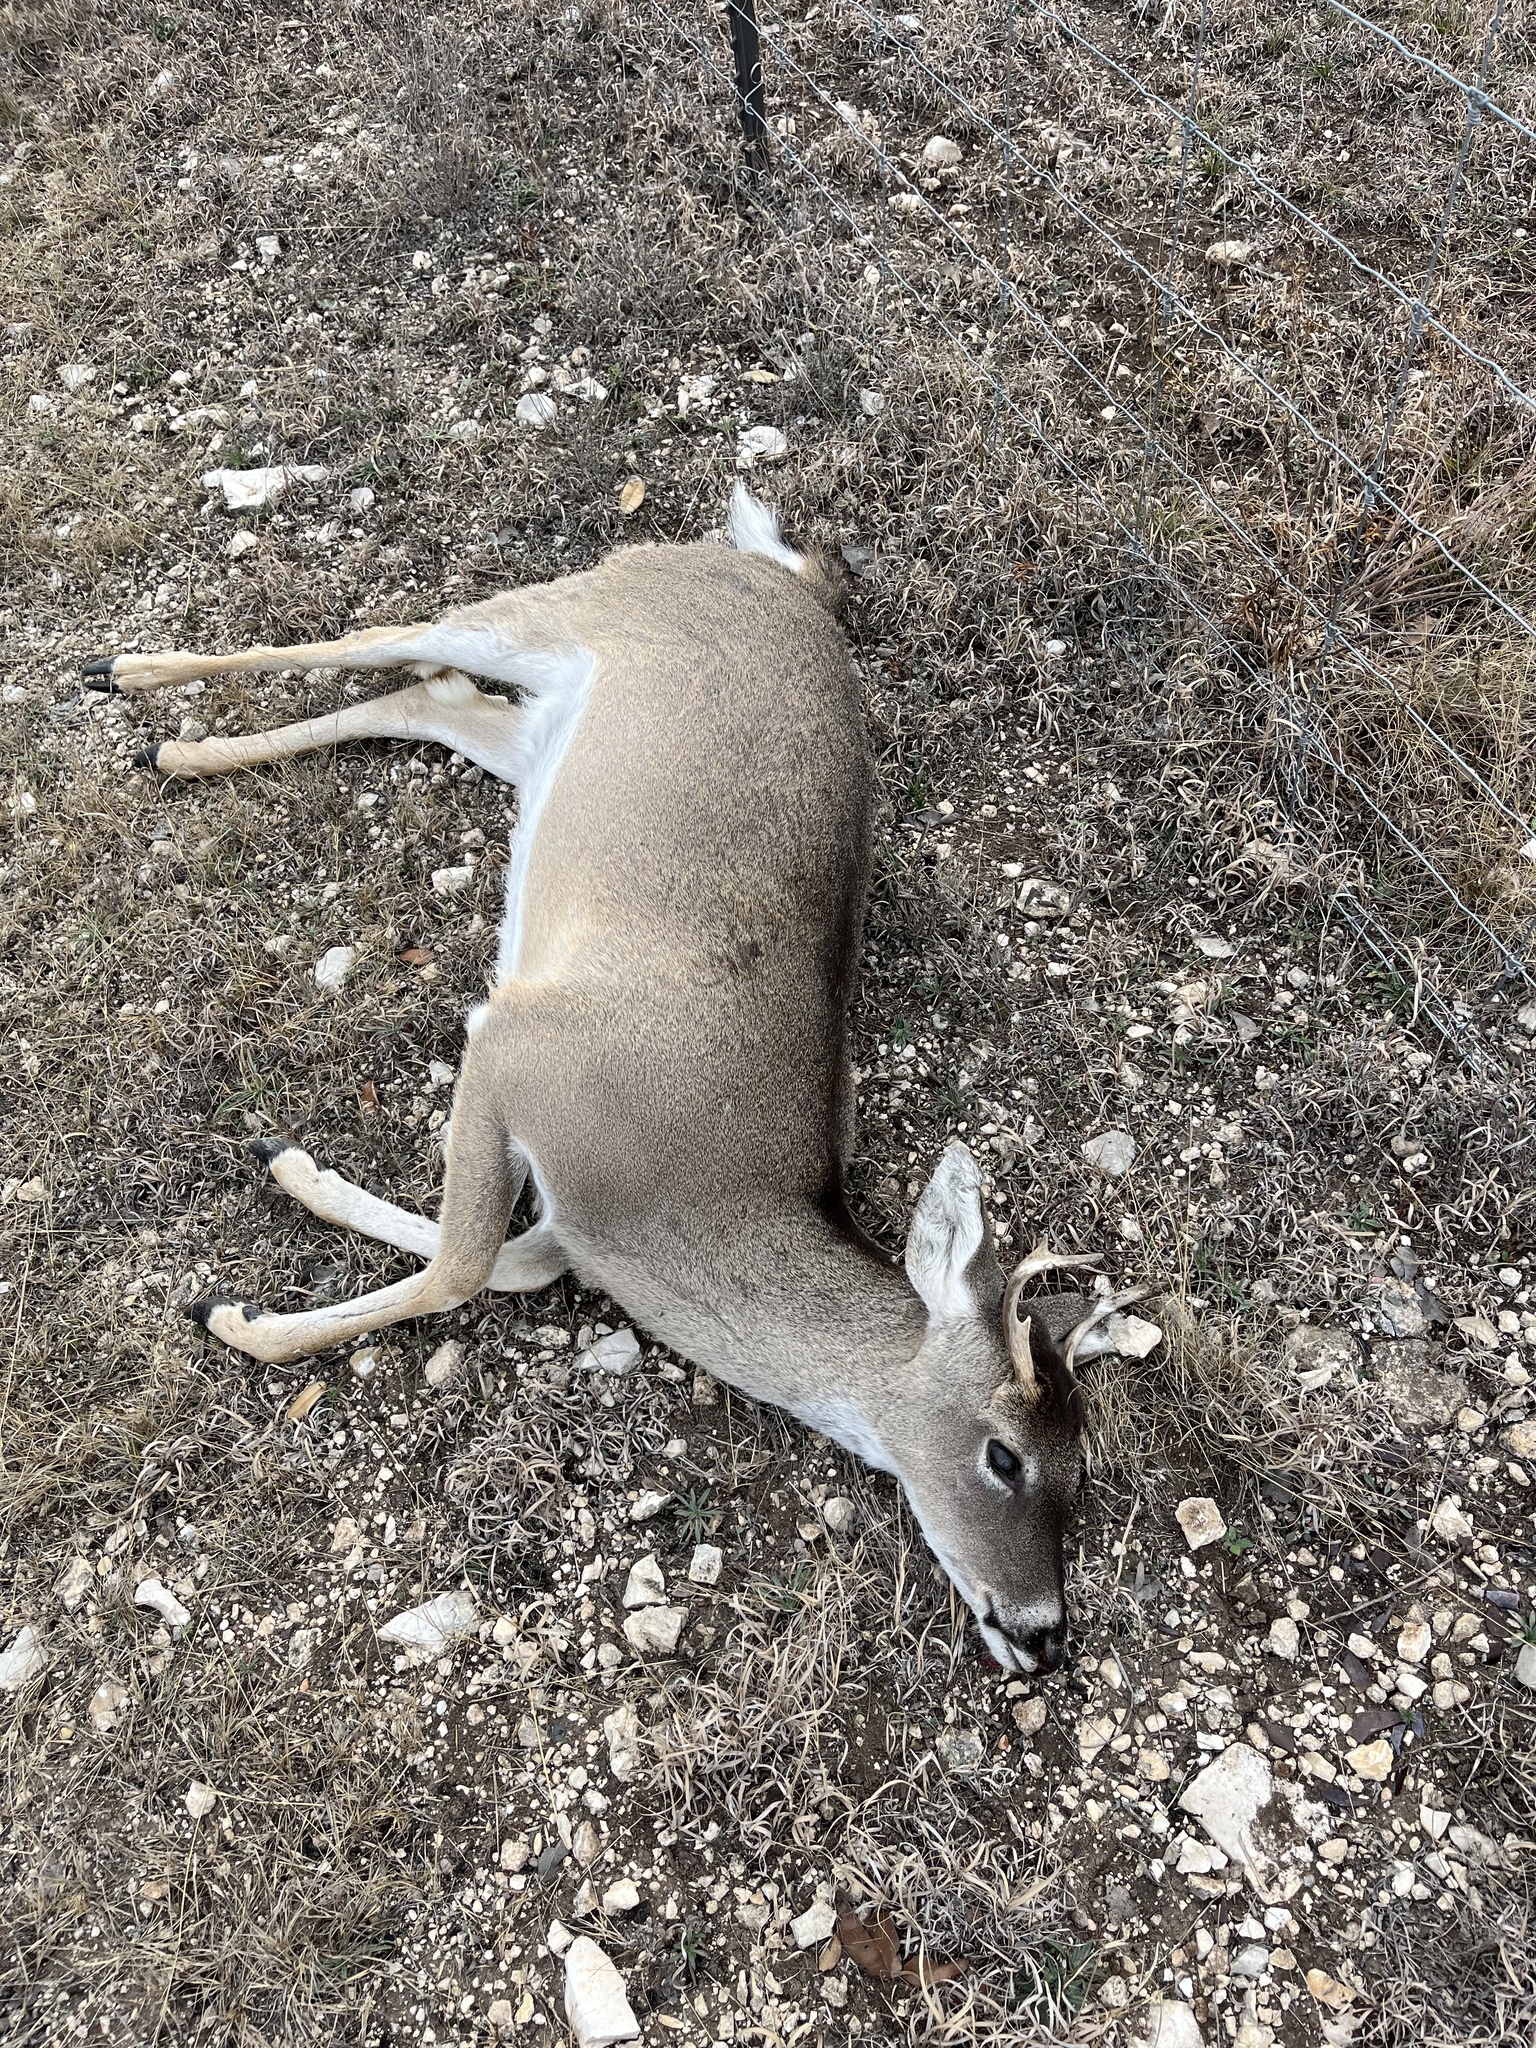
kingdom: Animalia
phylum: Chordata
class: Mammalia
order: Artiodactyla
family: Cervidae
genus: Odocoileus
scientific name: Odocoileus virginianus
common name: White-tailed deer
